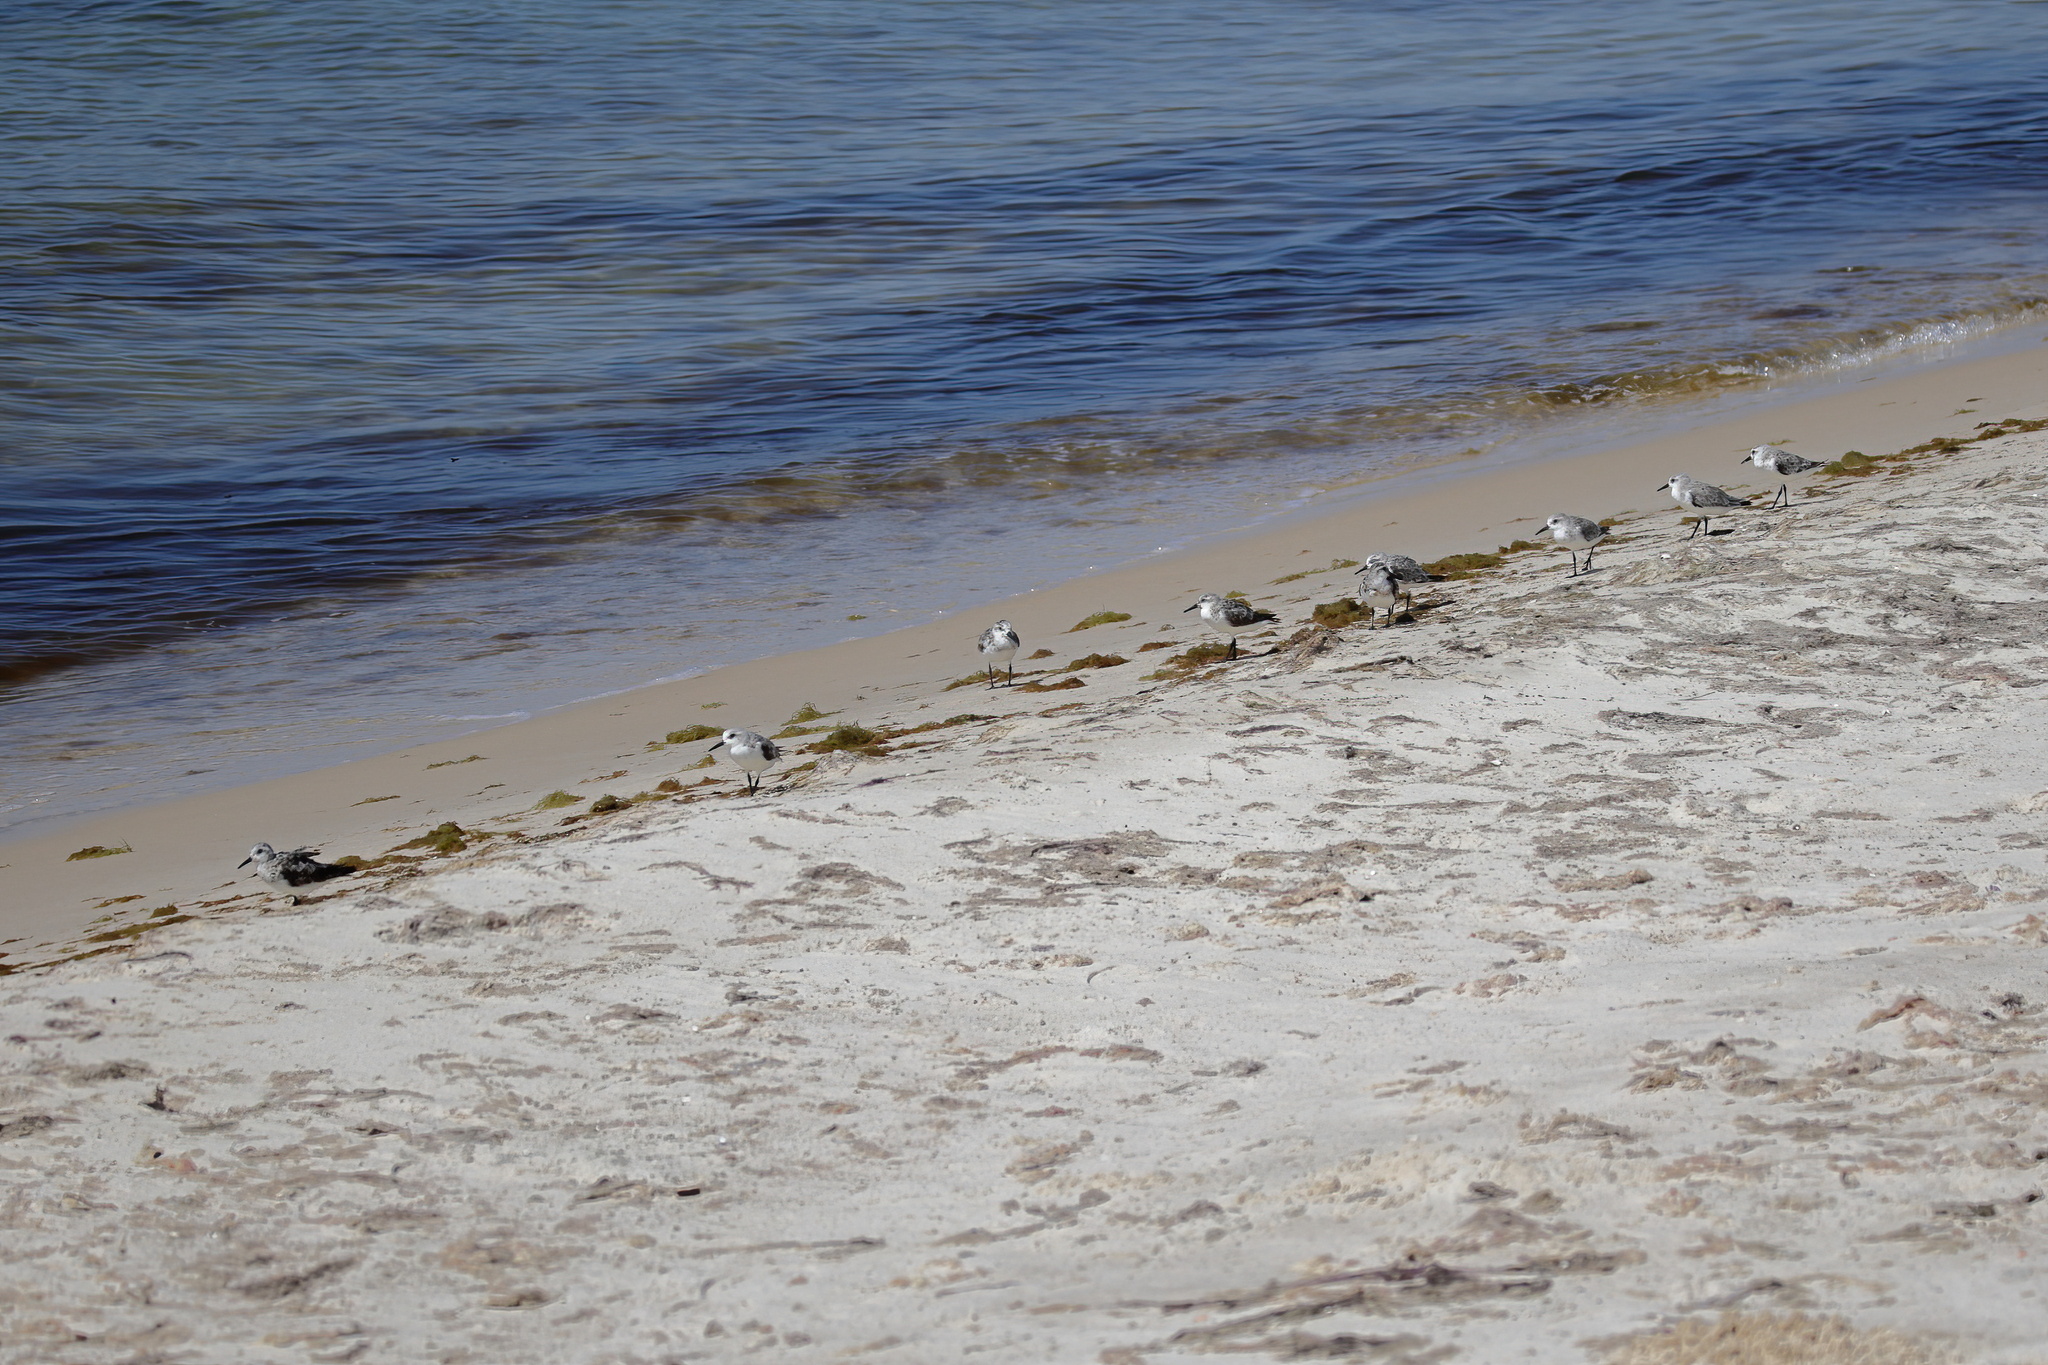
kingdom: Animalia
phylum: Chordata
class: Aves
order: Charadriiformes
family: Scolopacidae
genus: Calidris
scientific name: Calidris alba
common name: Sanderling
